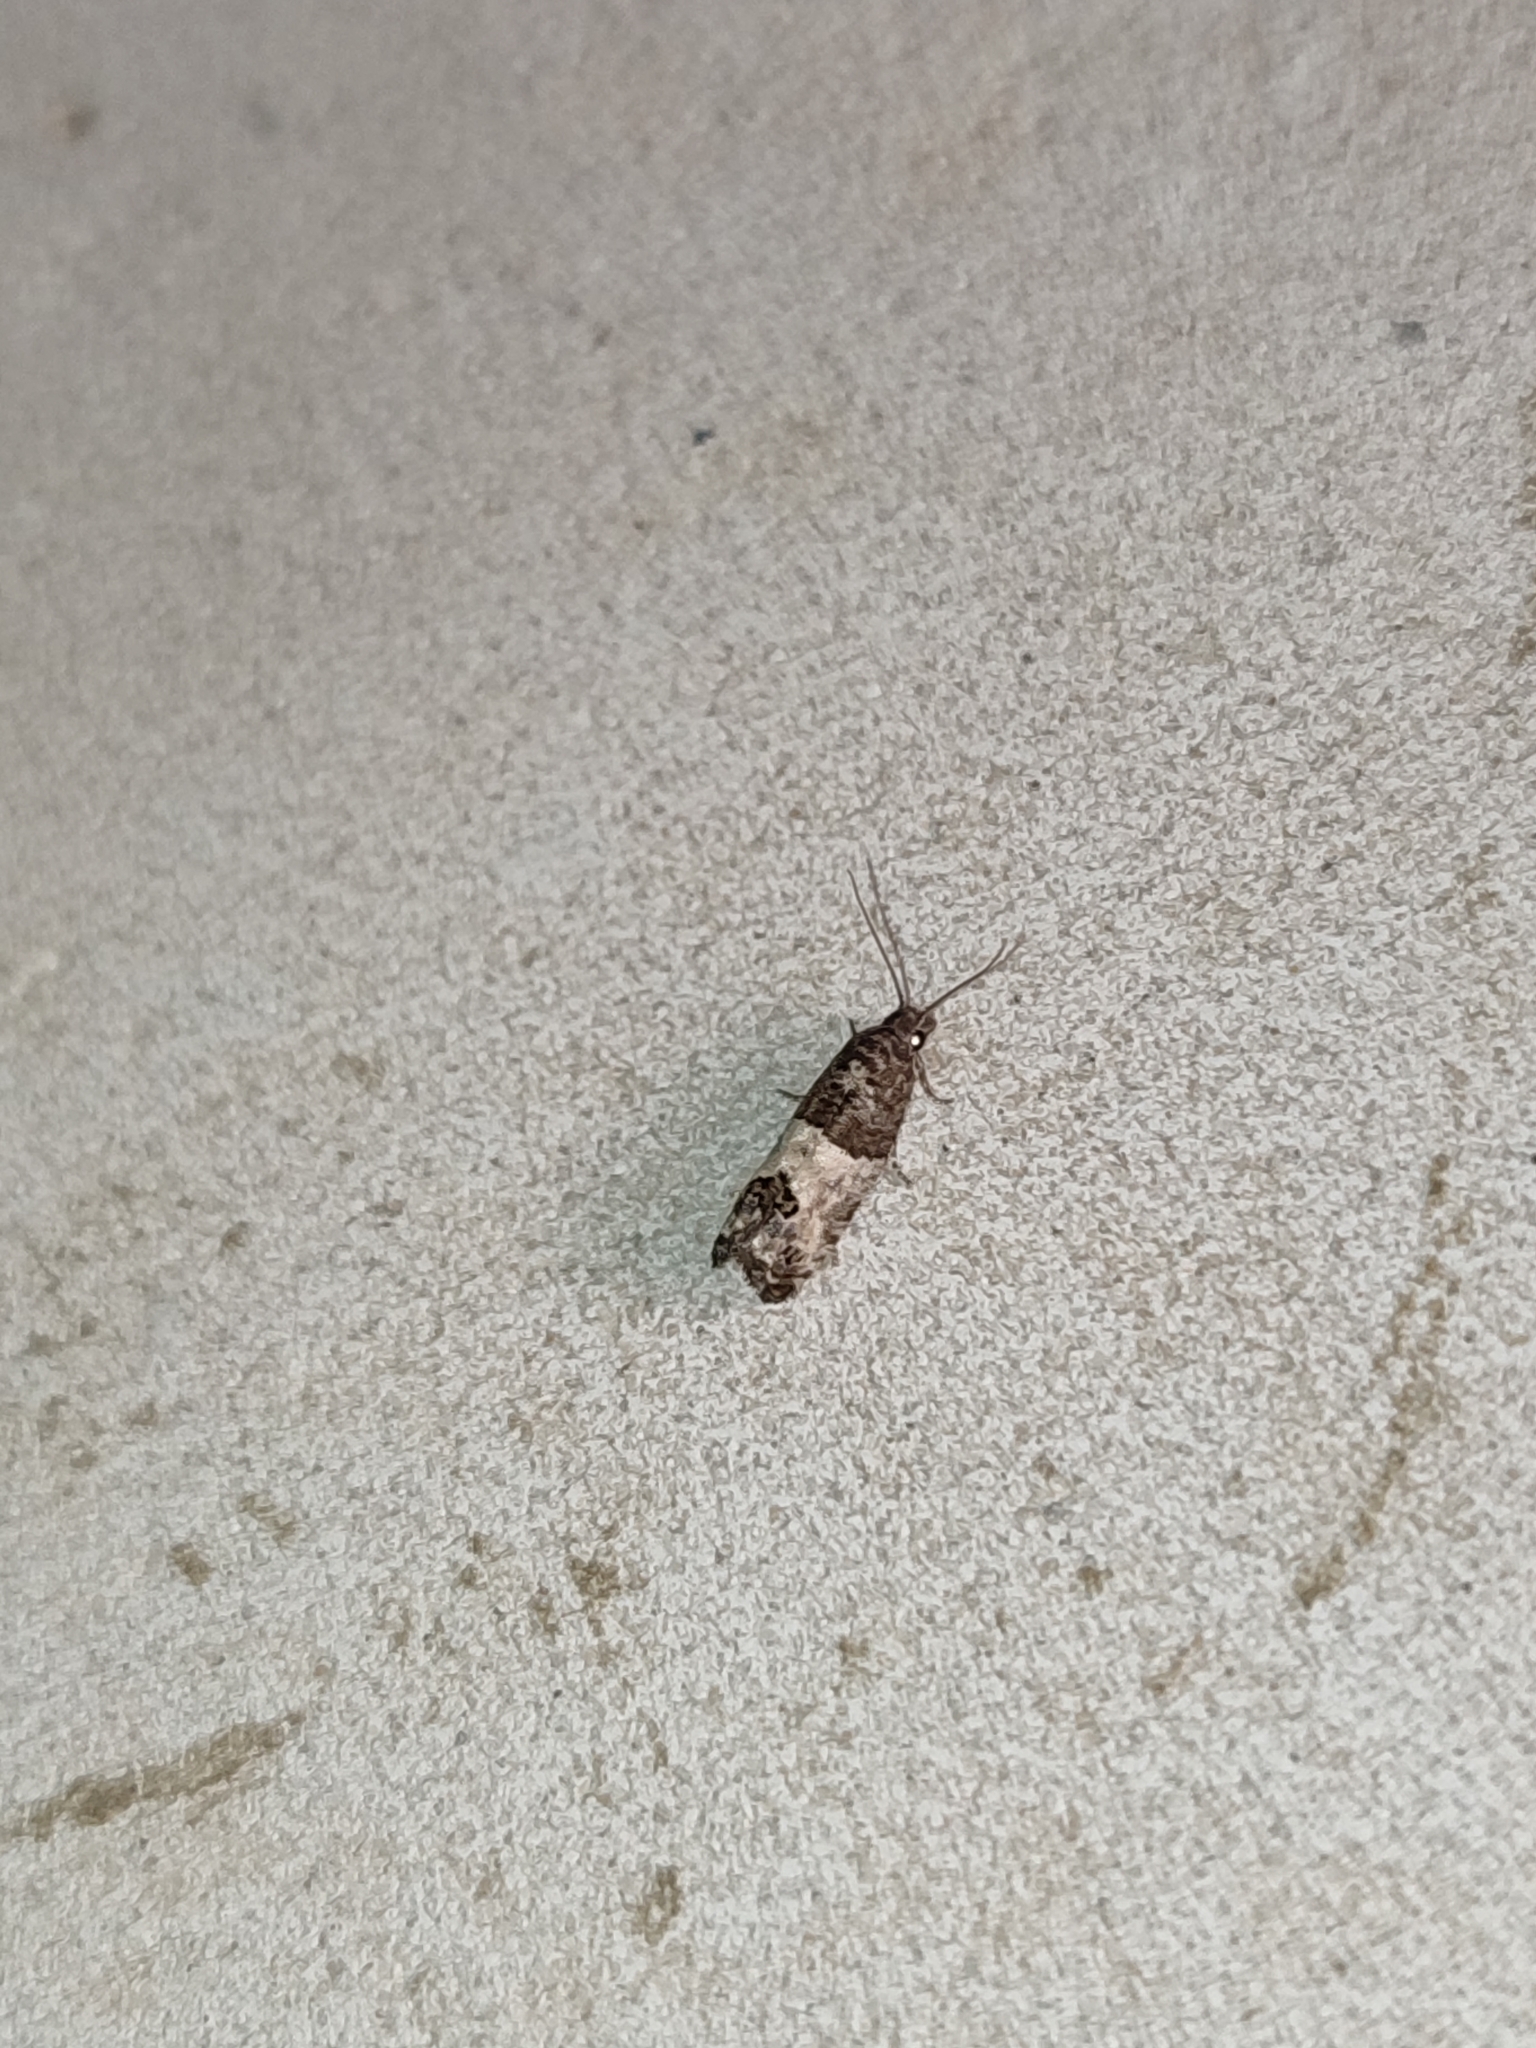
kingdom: Animalia
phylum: Arthropoda
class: Insecta
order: Lepidoptera
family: Tortricidae
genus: Spilonota
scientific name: Spilonota ocellana
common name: Bud moth
